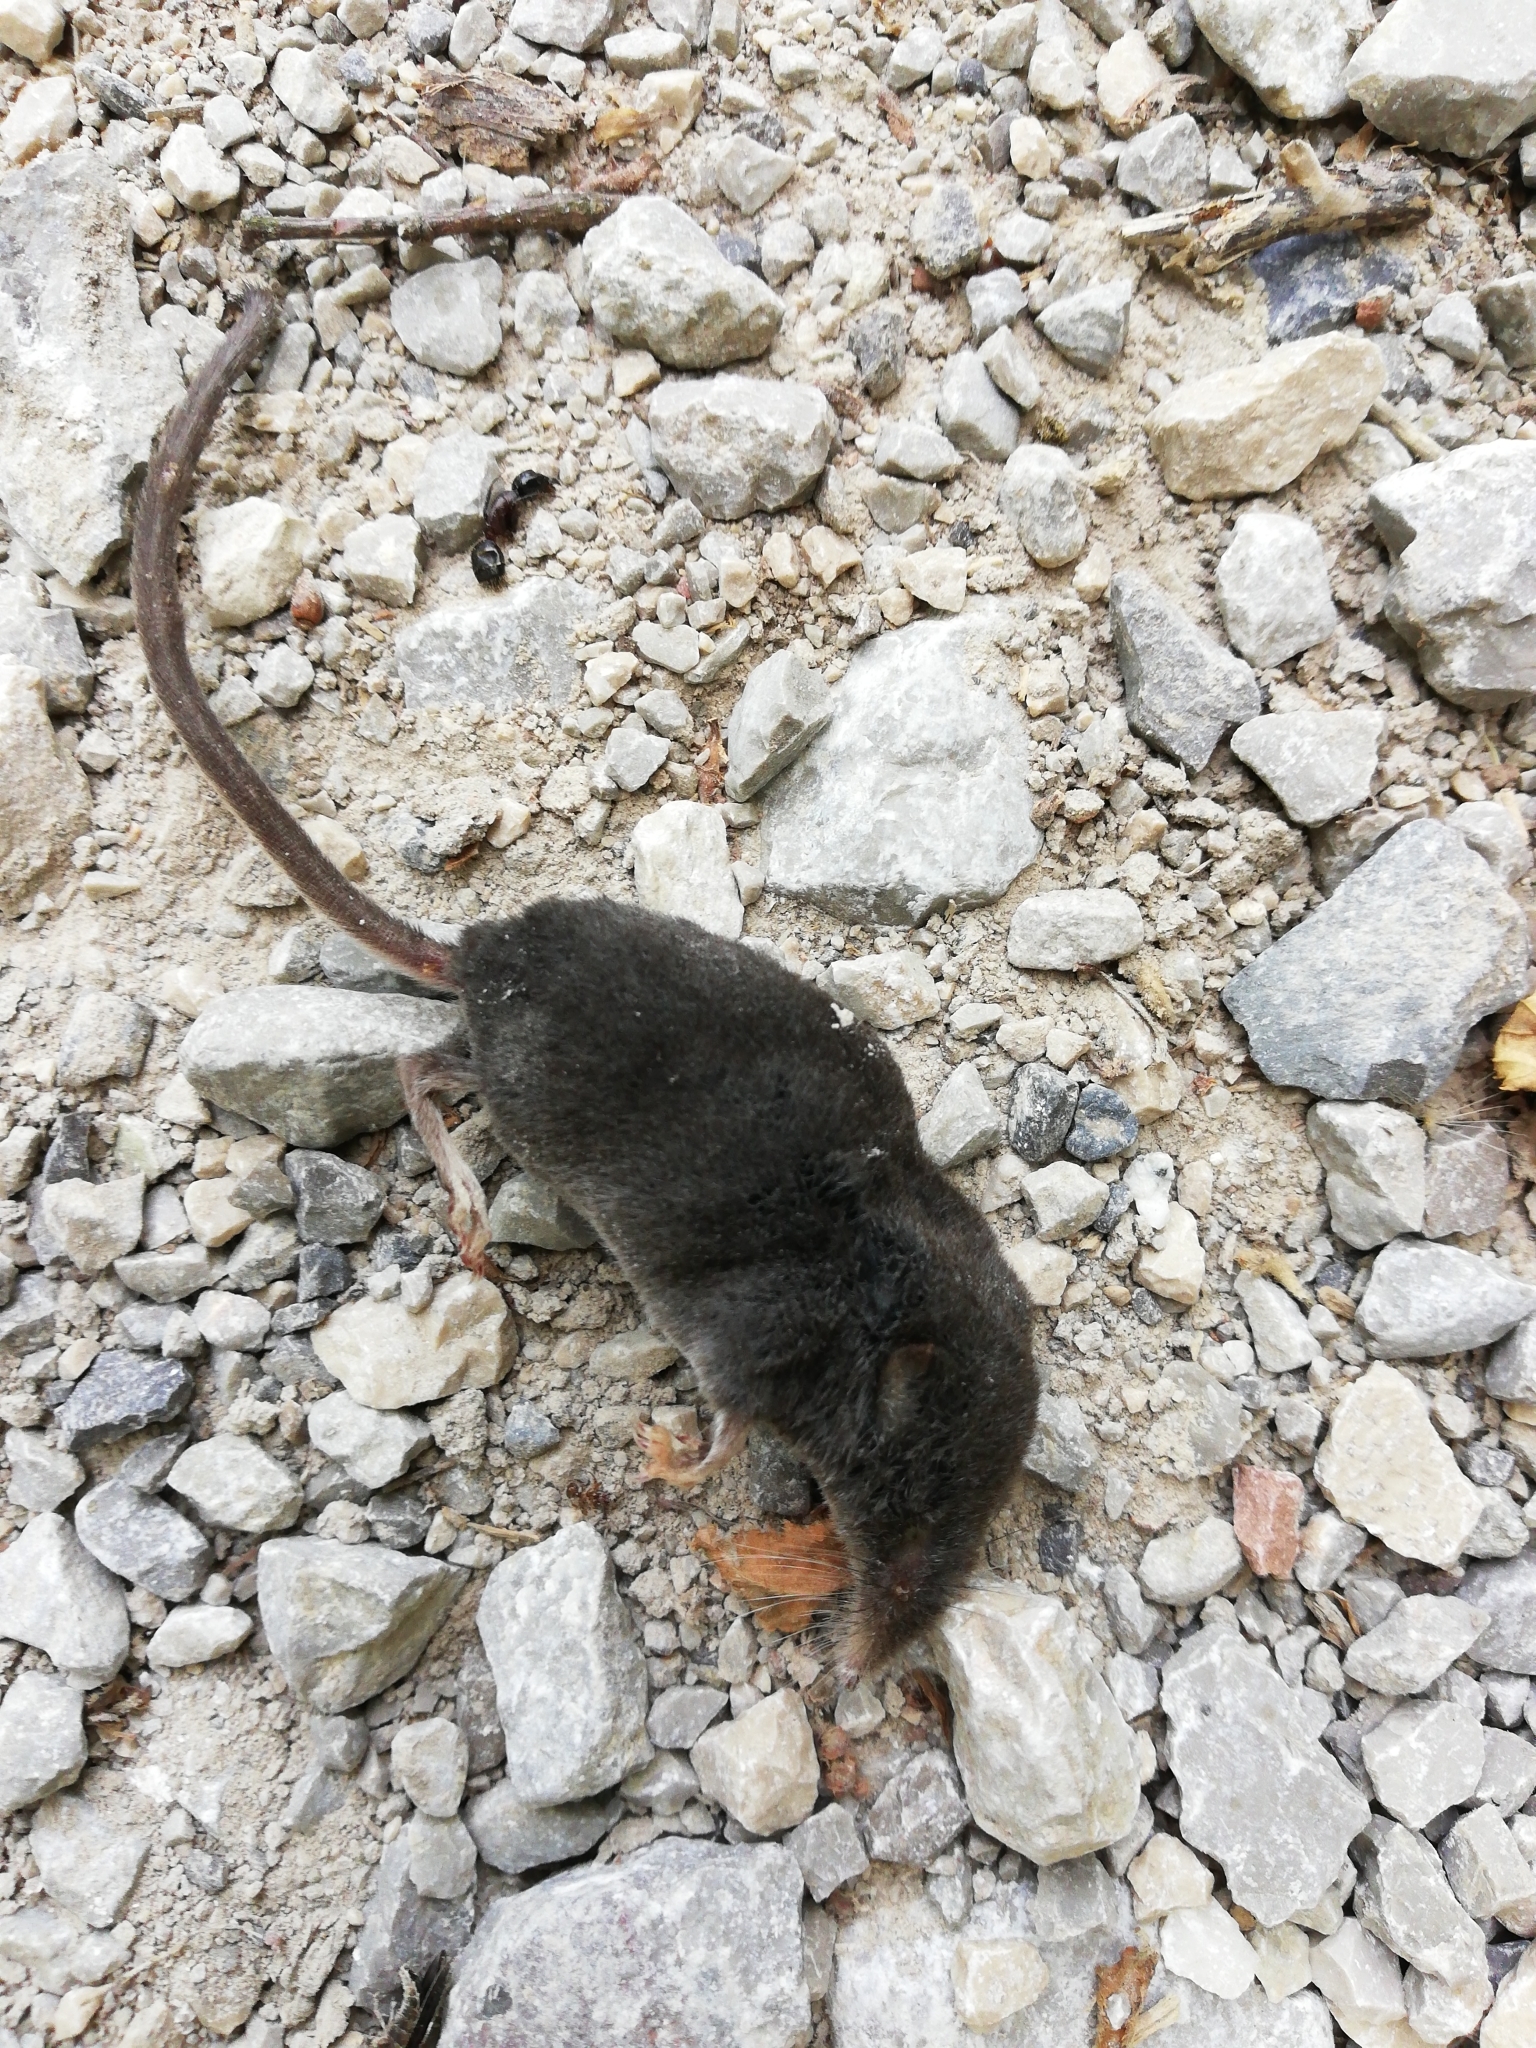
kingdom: Animalia
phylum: Chordata
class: Mammalia
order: Soricomorpha
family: Soricidae
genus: Sorex
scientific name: Sorex alpinus
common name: Alpine shrew
